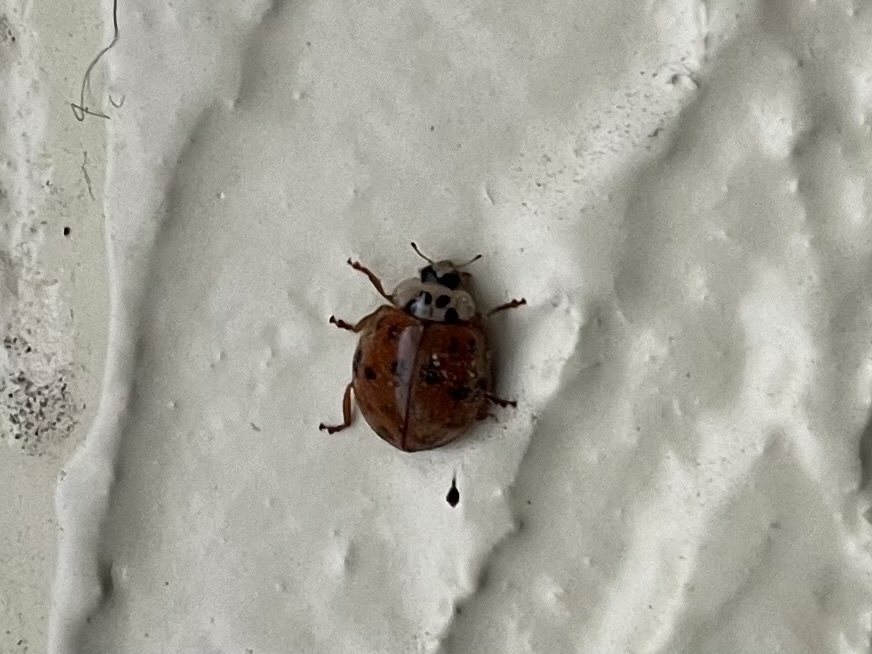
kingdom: Animalia
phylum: Arthropoda
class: Insecta
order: Coleoptera
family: Coccinellidae
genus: Harmonia
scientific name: Harmonia axyridis
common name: Harlequin ladybird
